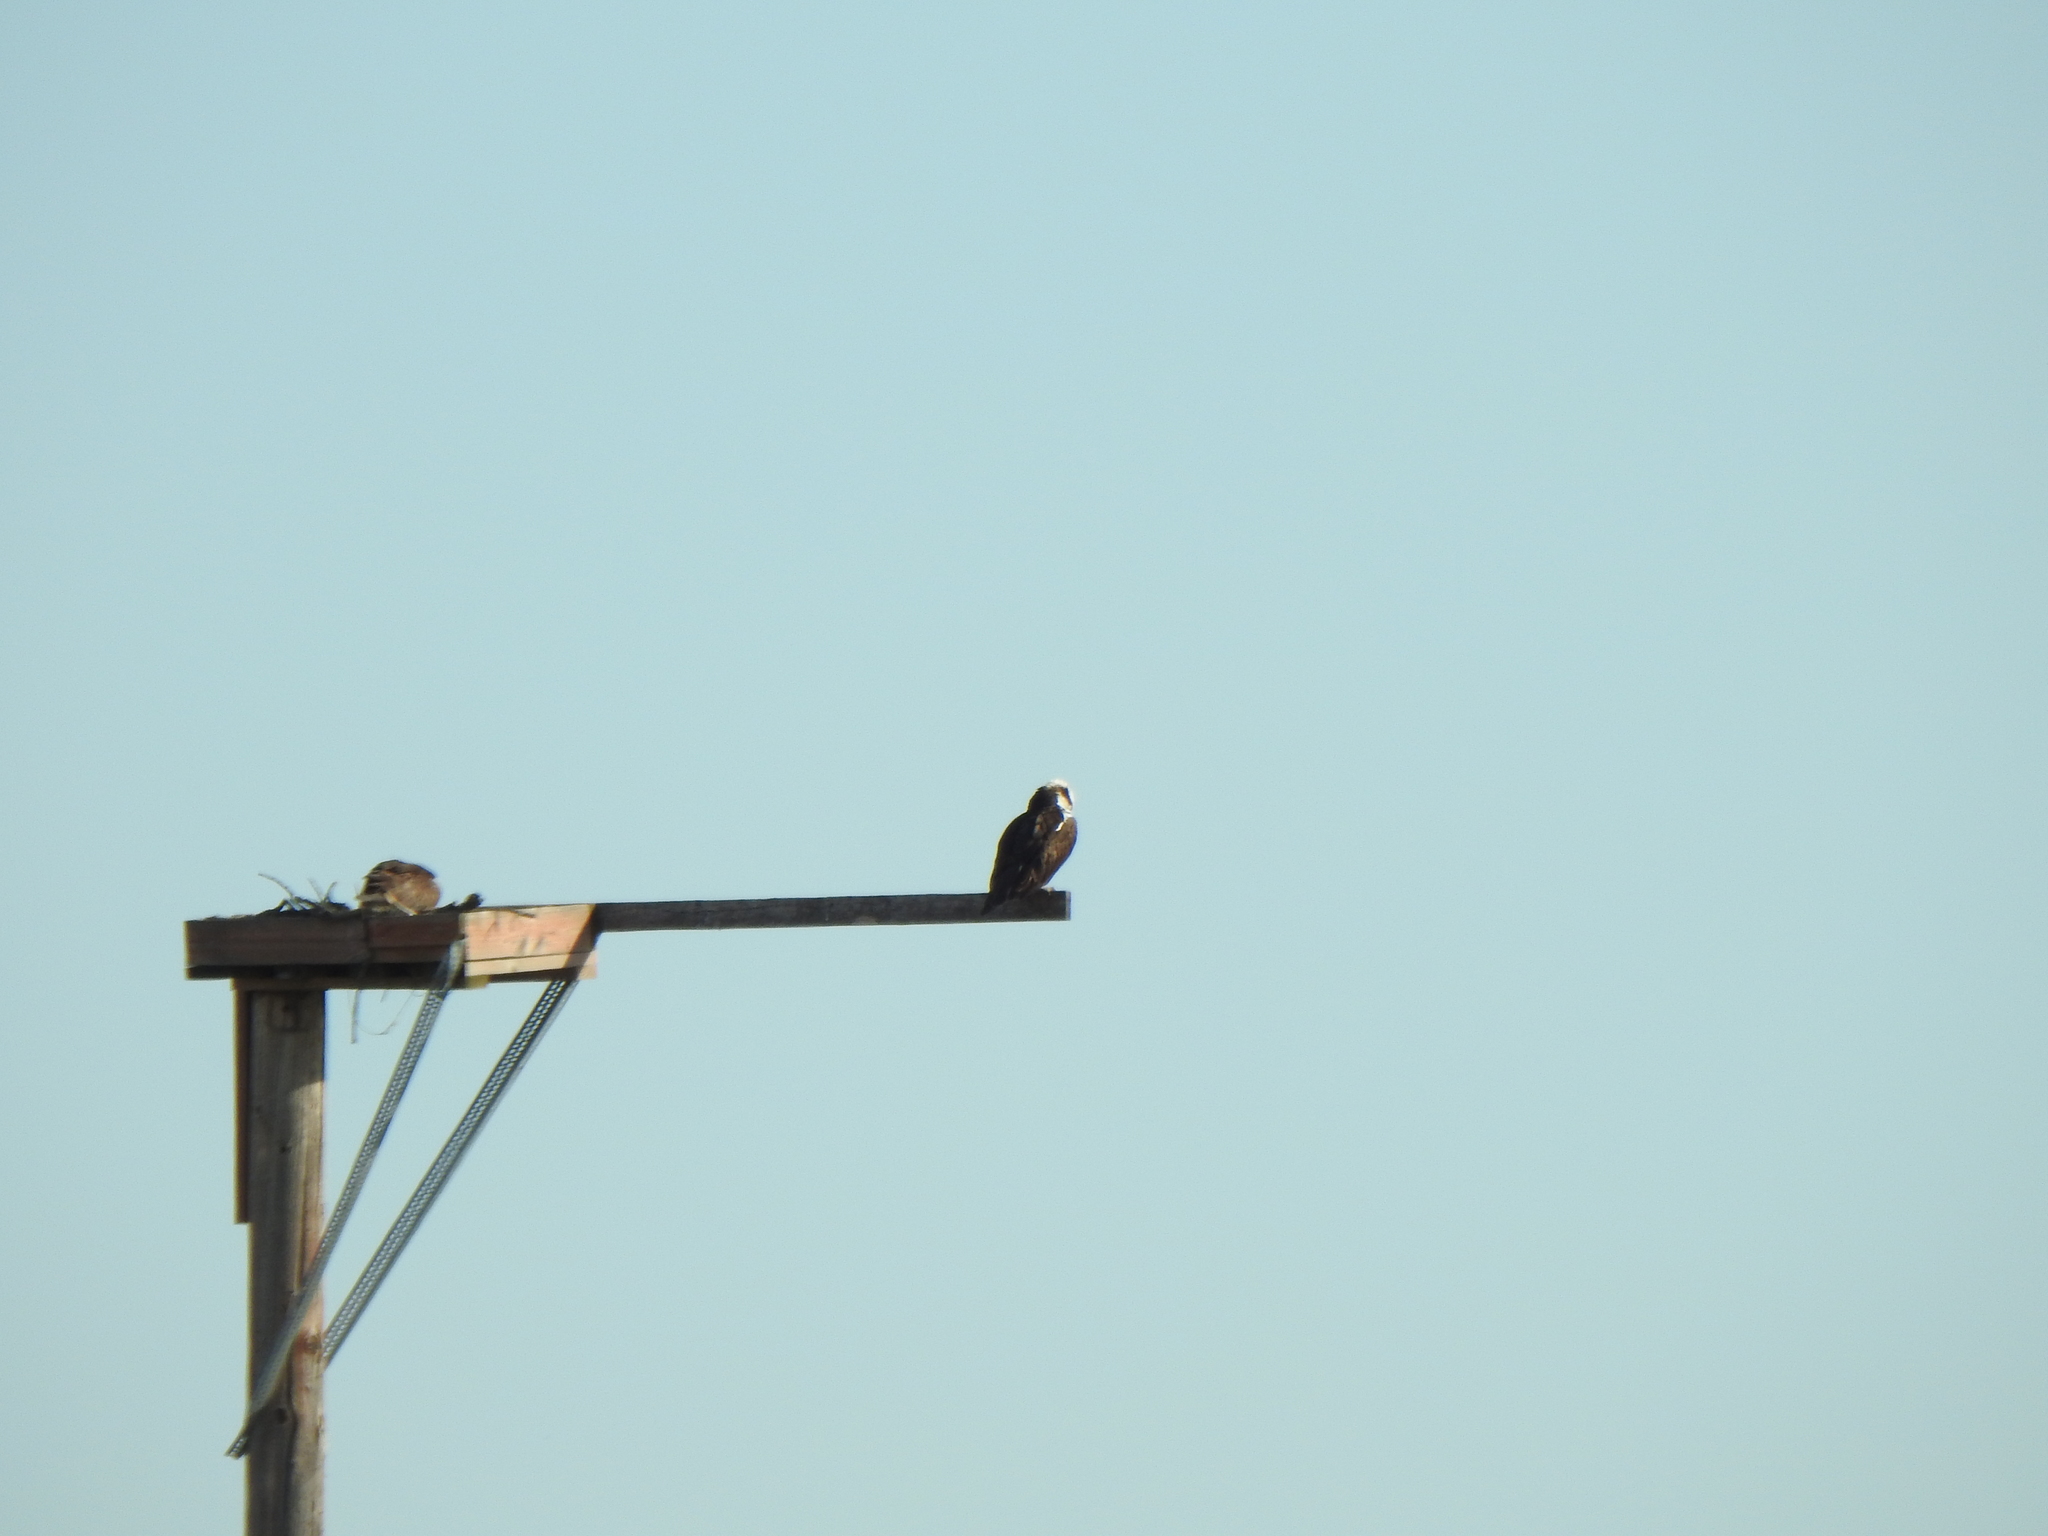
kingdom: Animalia
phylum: Chordata
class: Aves
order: Accipitriformes
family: Pandionidae
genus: Pandion
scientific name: Pandion haliaetus
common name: Osprey
